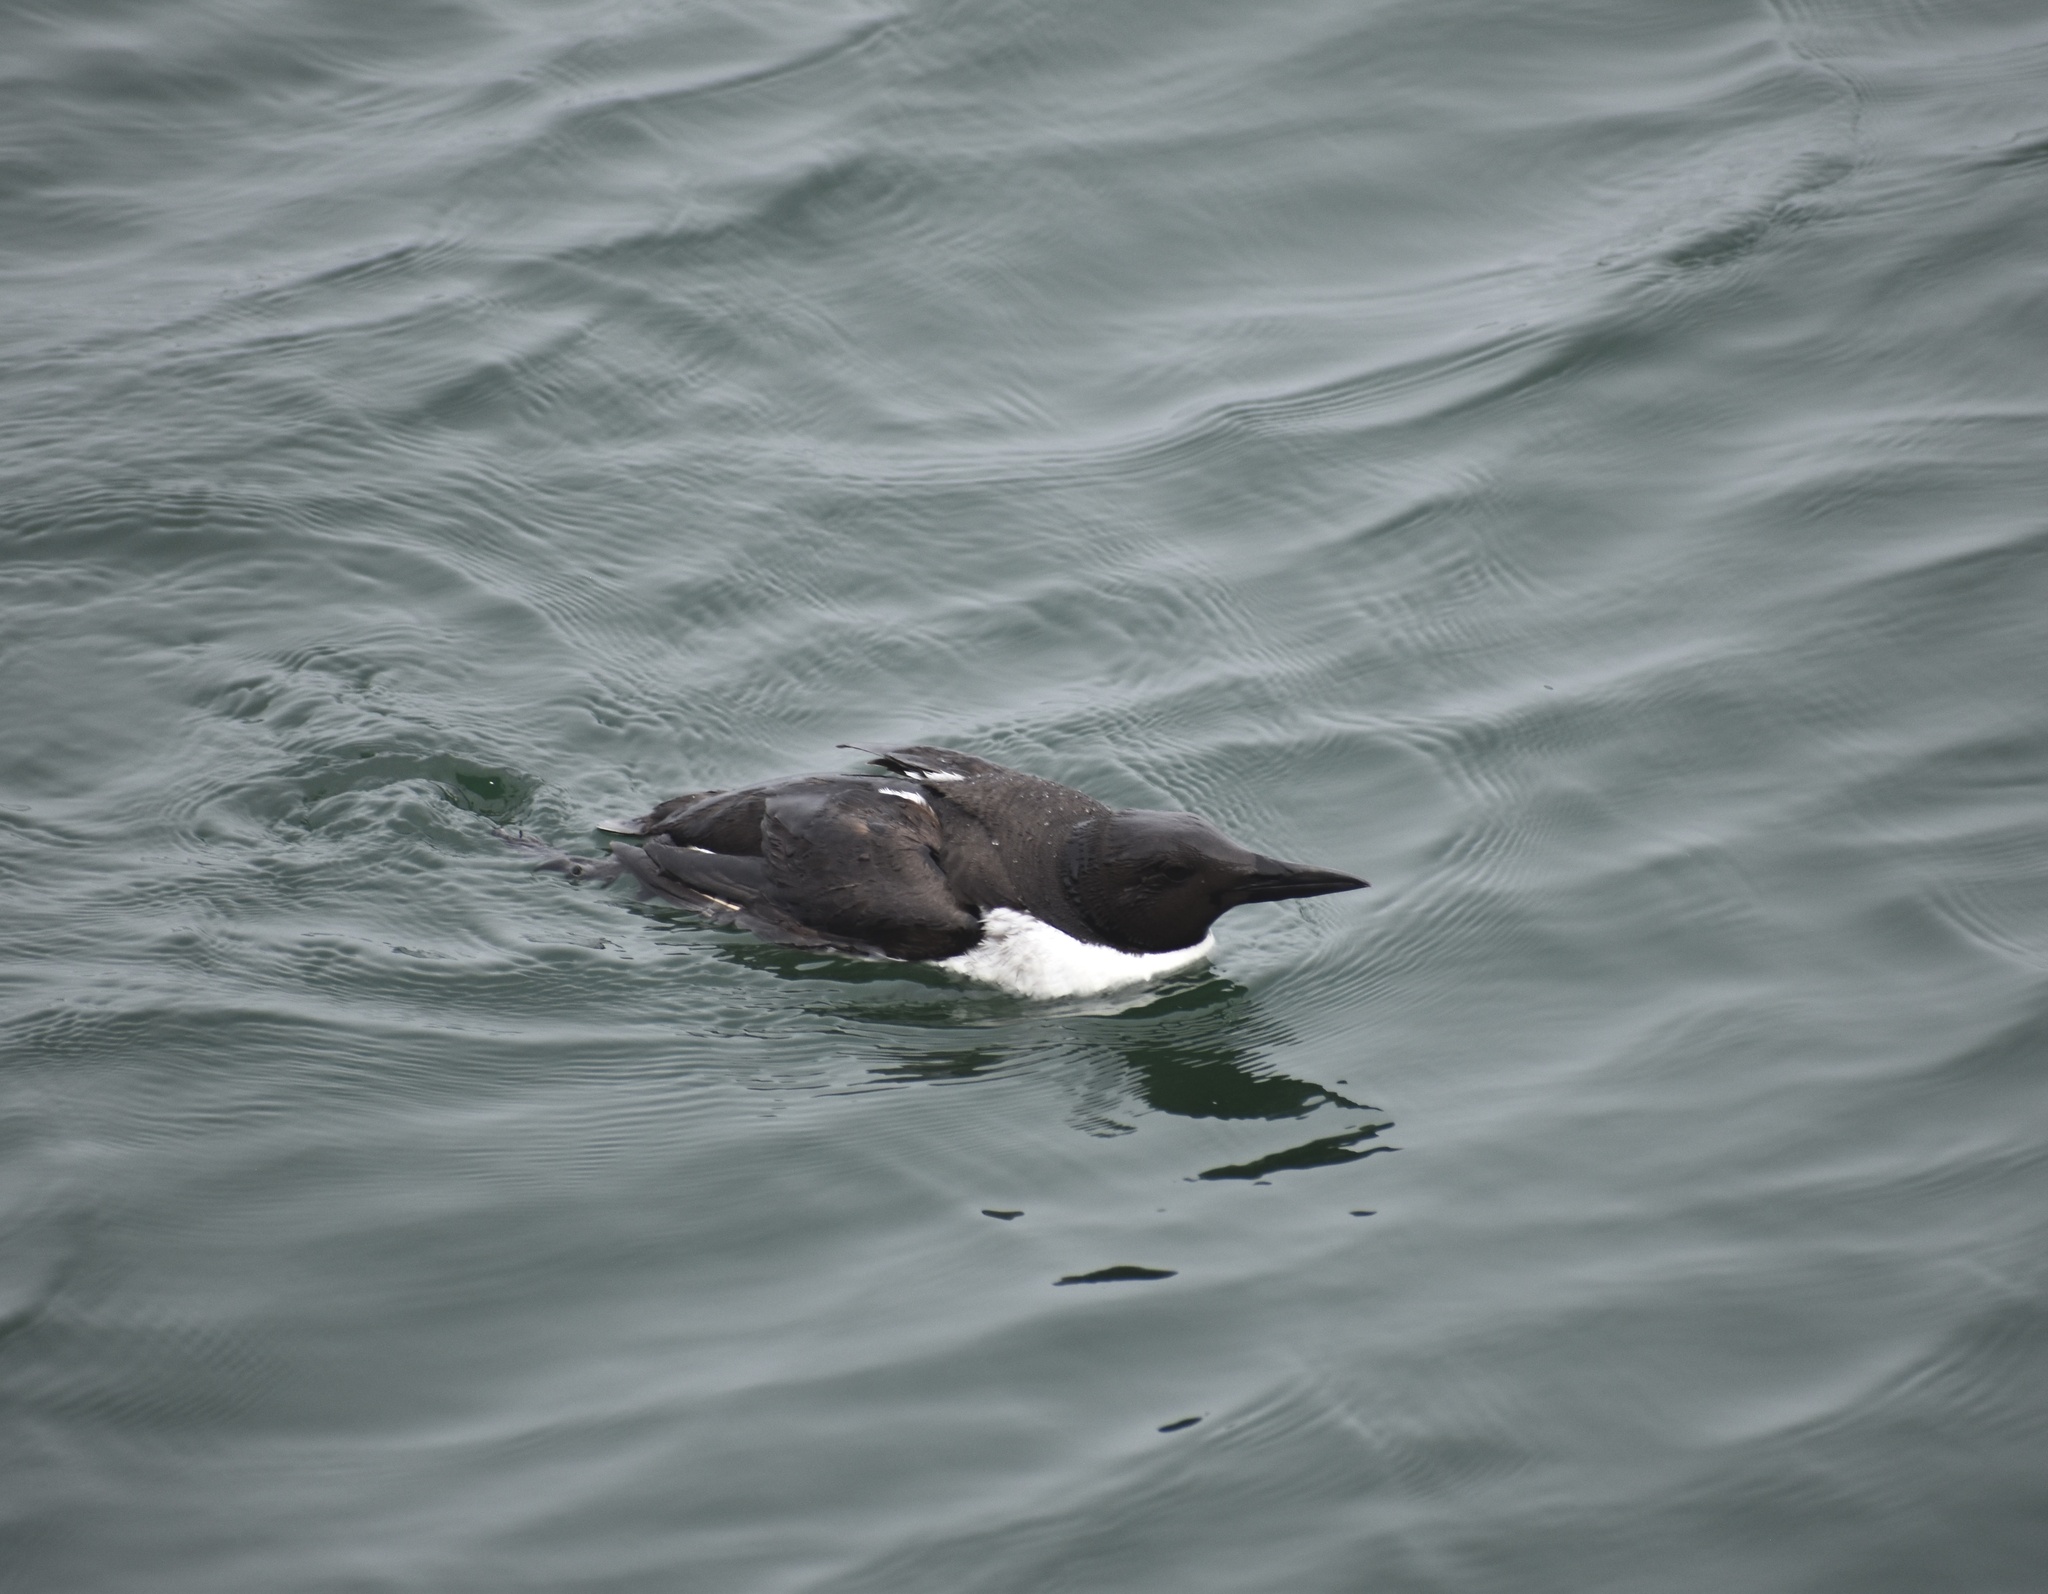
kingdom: Animalia
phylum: Chordata
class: Aves
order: Charadriiformes
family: Alcidae
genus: Uria
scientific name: Uria aalge
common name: Common murre
